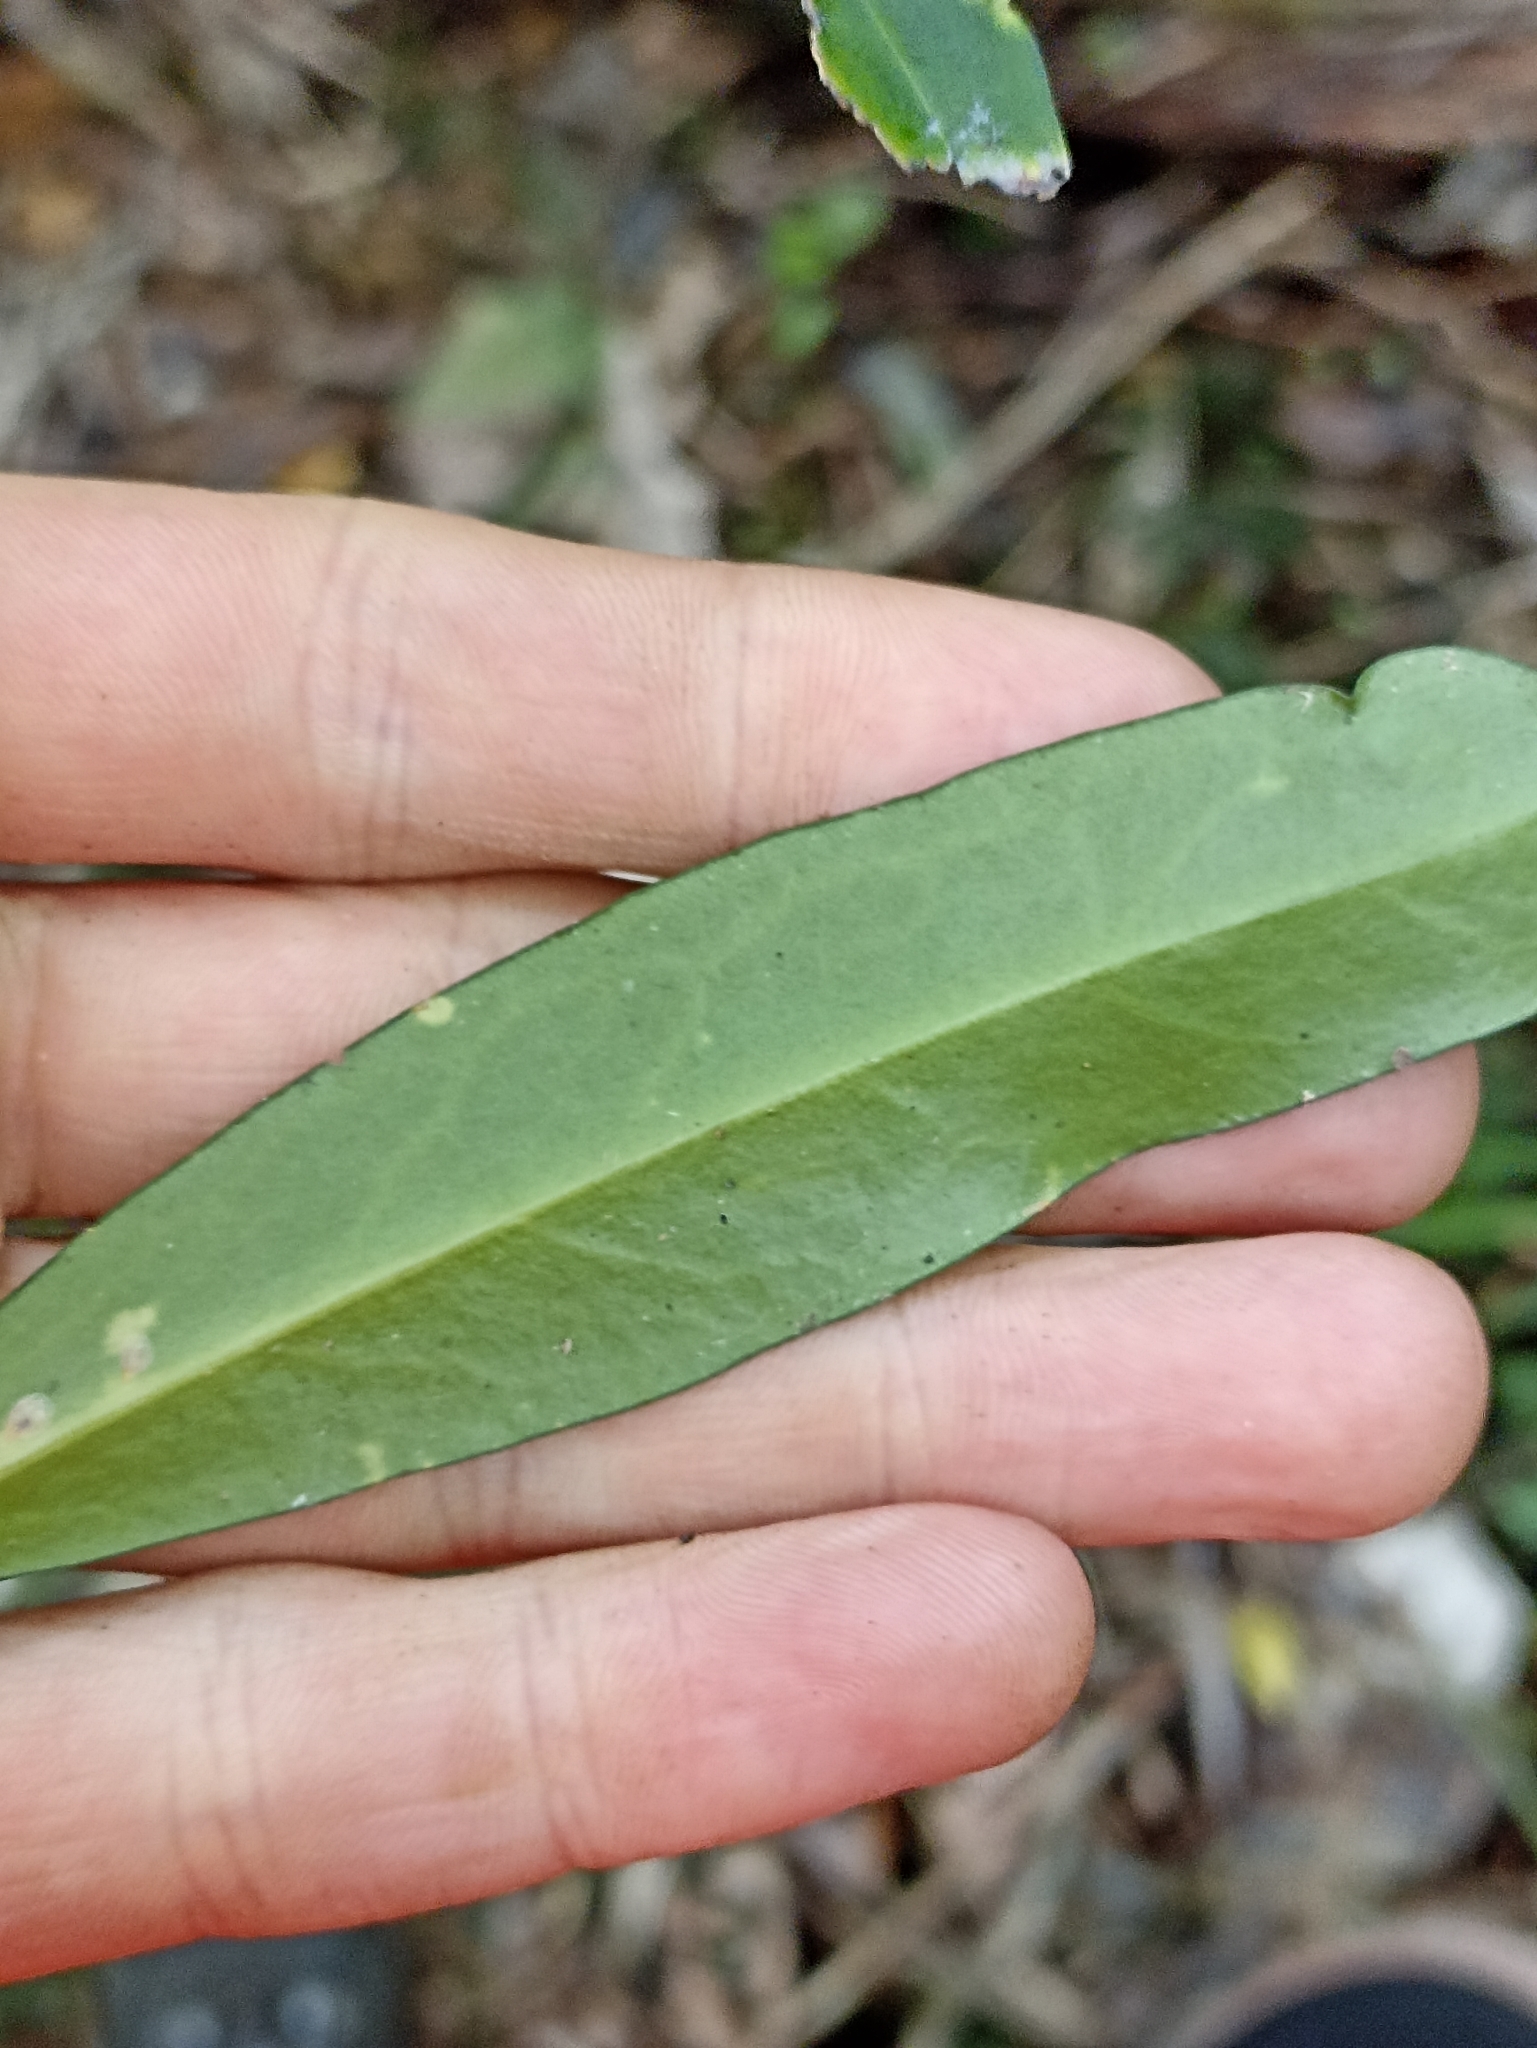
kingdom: Plantae
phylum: Tracheophyta
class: Magnoliopsida
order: Lamiales
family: Oleaceae
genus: Nestegis
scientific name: Nestegis lanceolata
